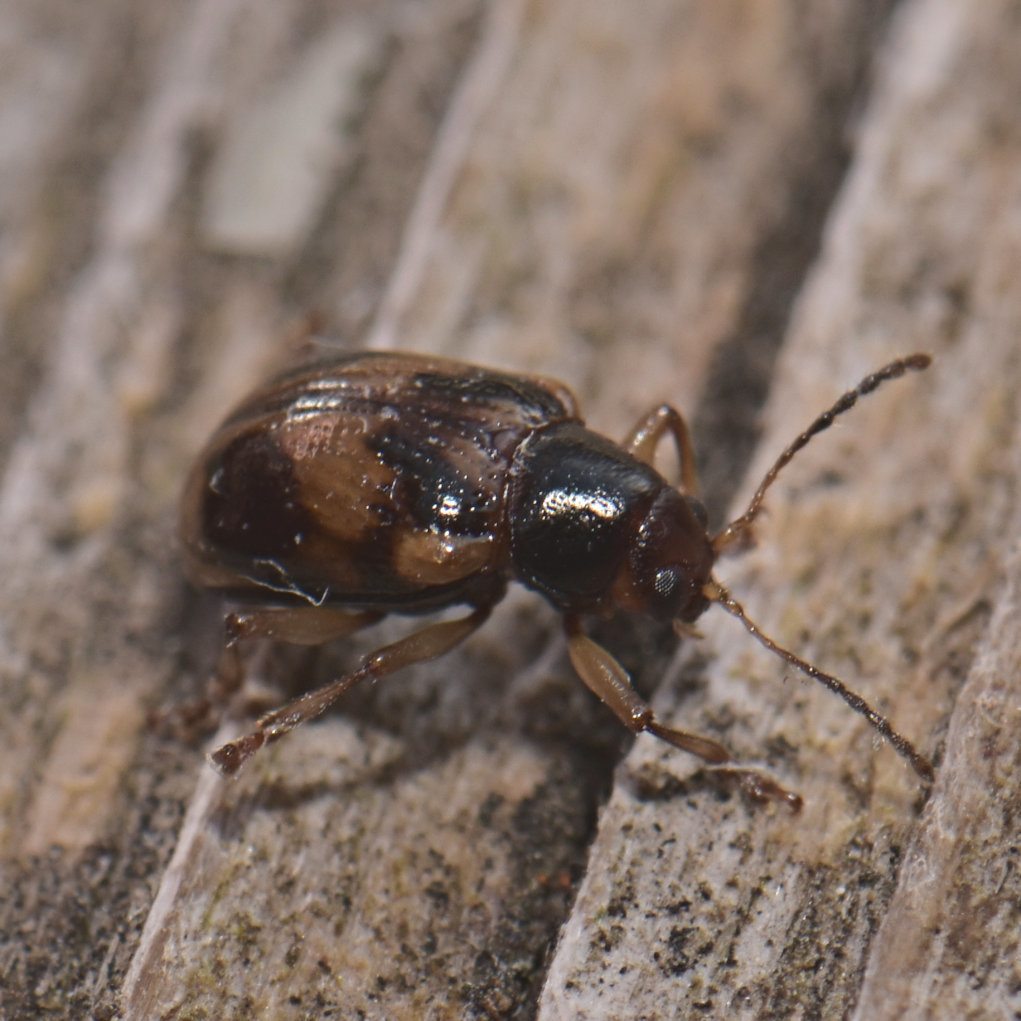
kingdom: Animalia
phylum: Arthropoda
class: Insecta
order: Coleoptera
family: Chrysomelidae
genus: Paria
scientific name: Paria quadrinotata
